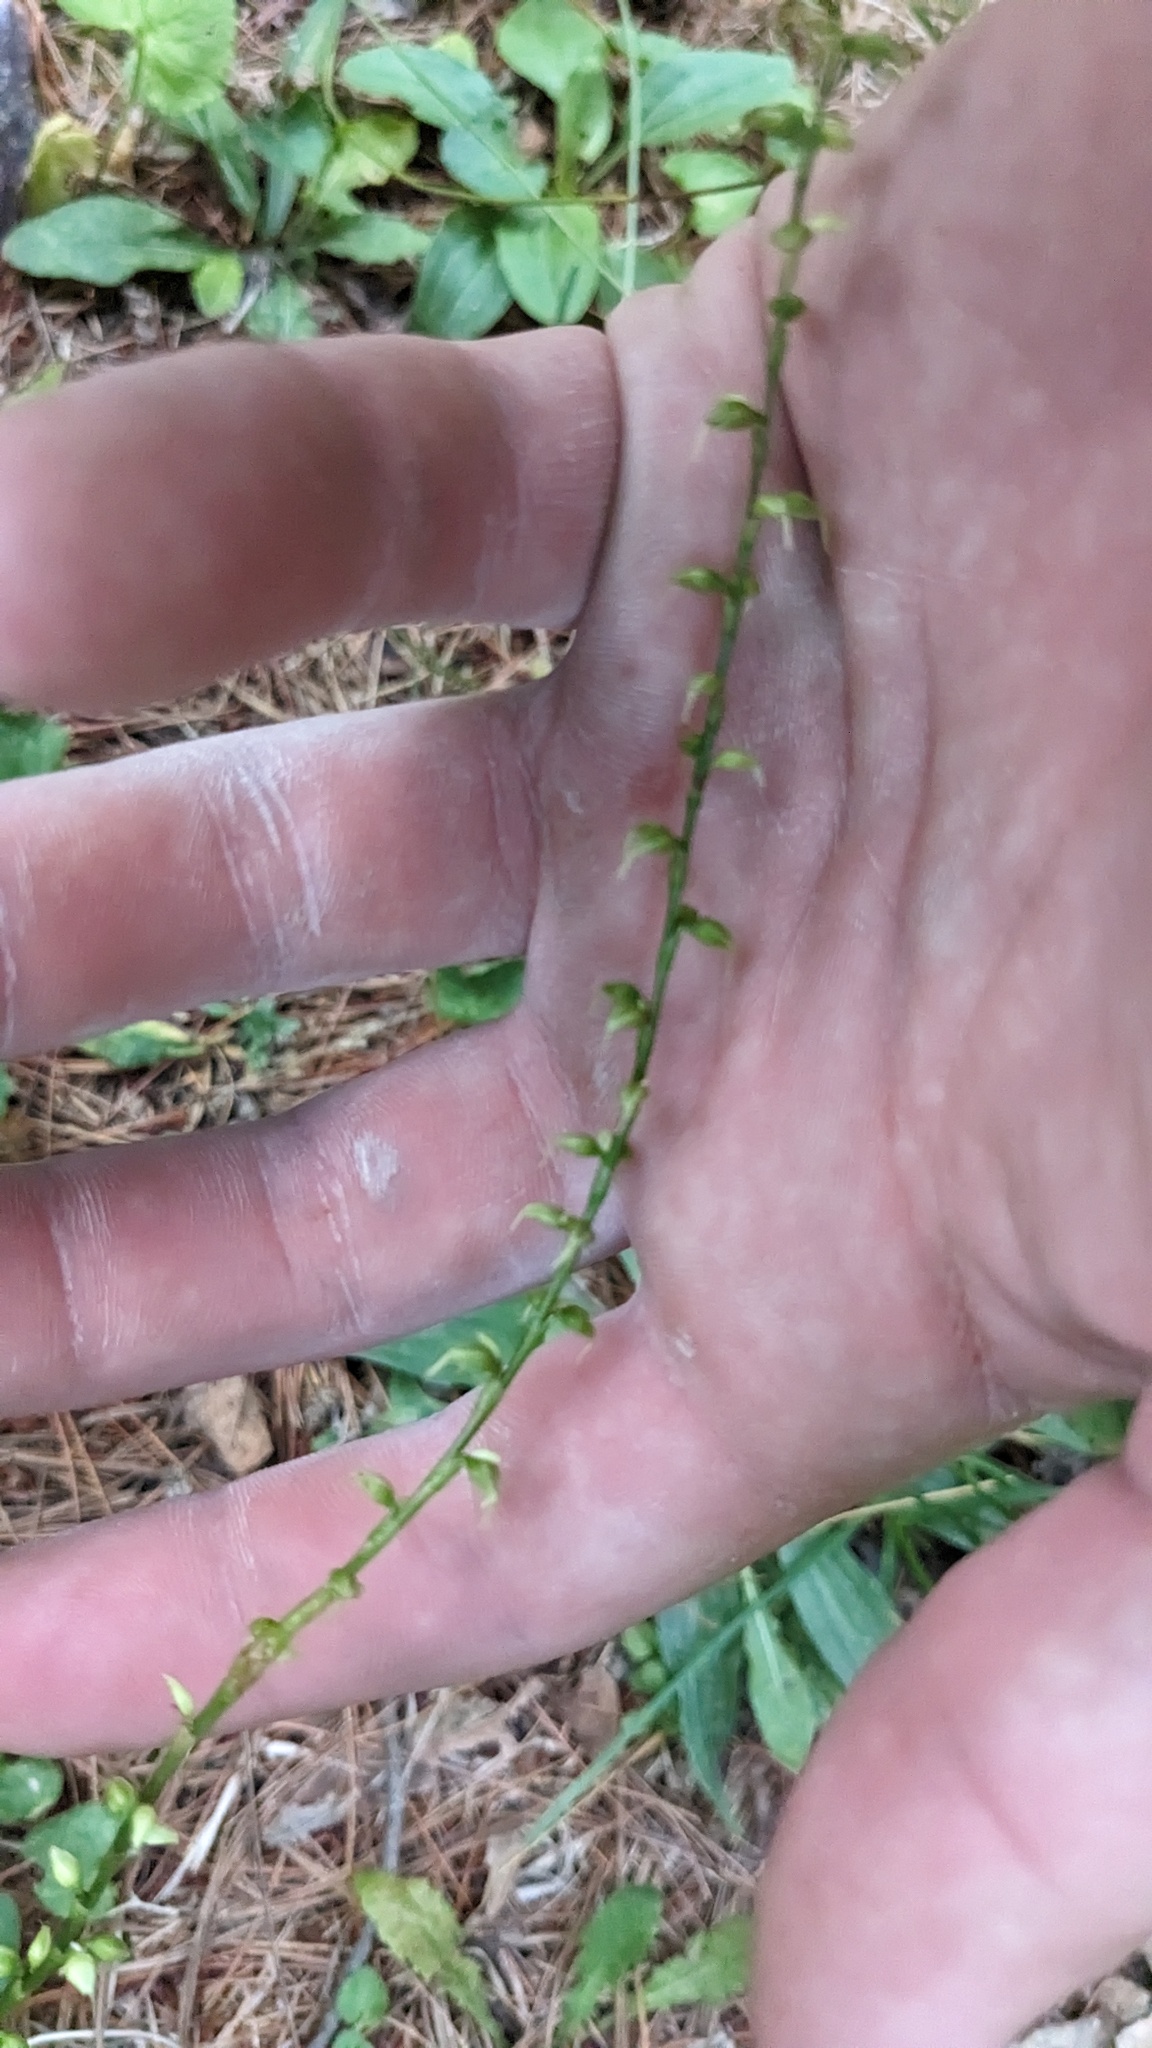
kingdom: Plantae
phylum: Tracheophyta
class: Magnoliopsida
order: Caryophyllales
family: Polygonaceae
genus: Persicaria
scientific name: Persicaria virginiana
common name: Jumpseed
